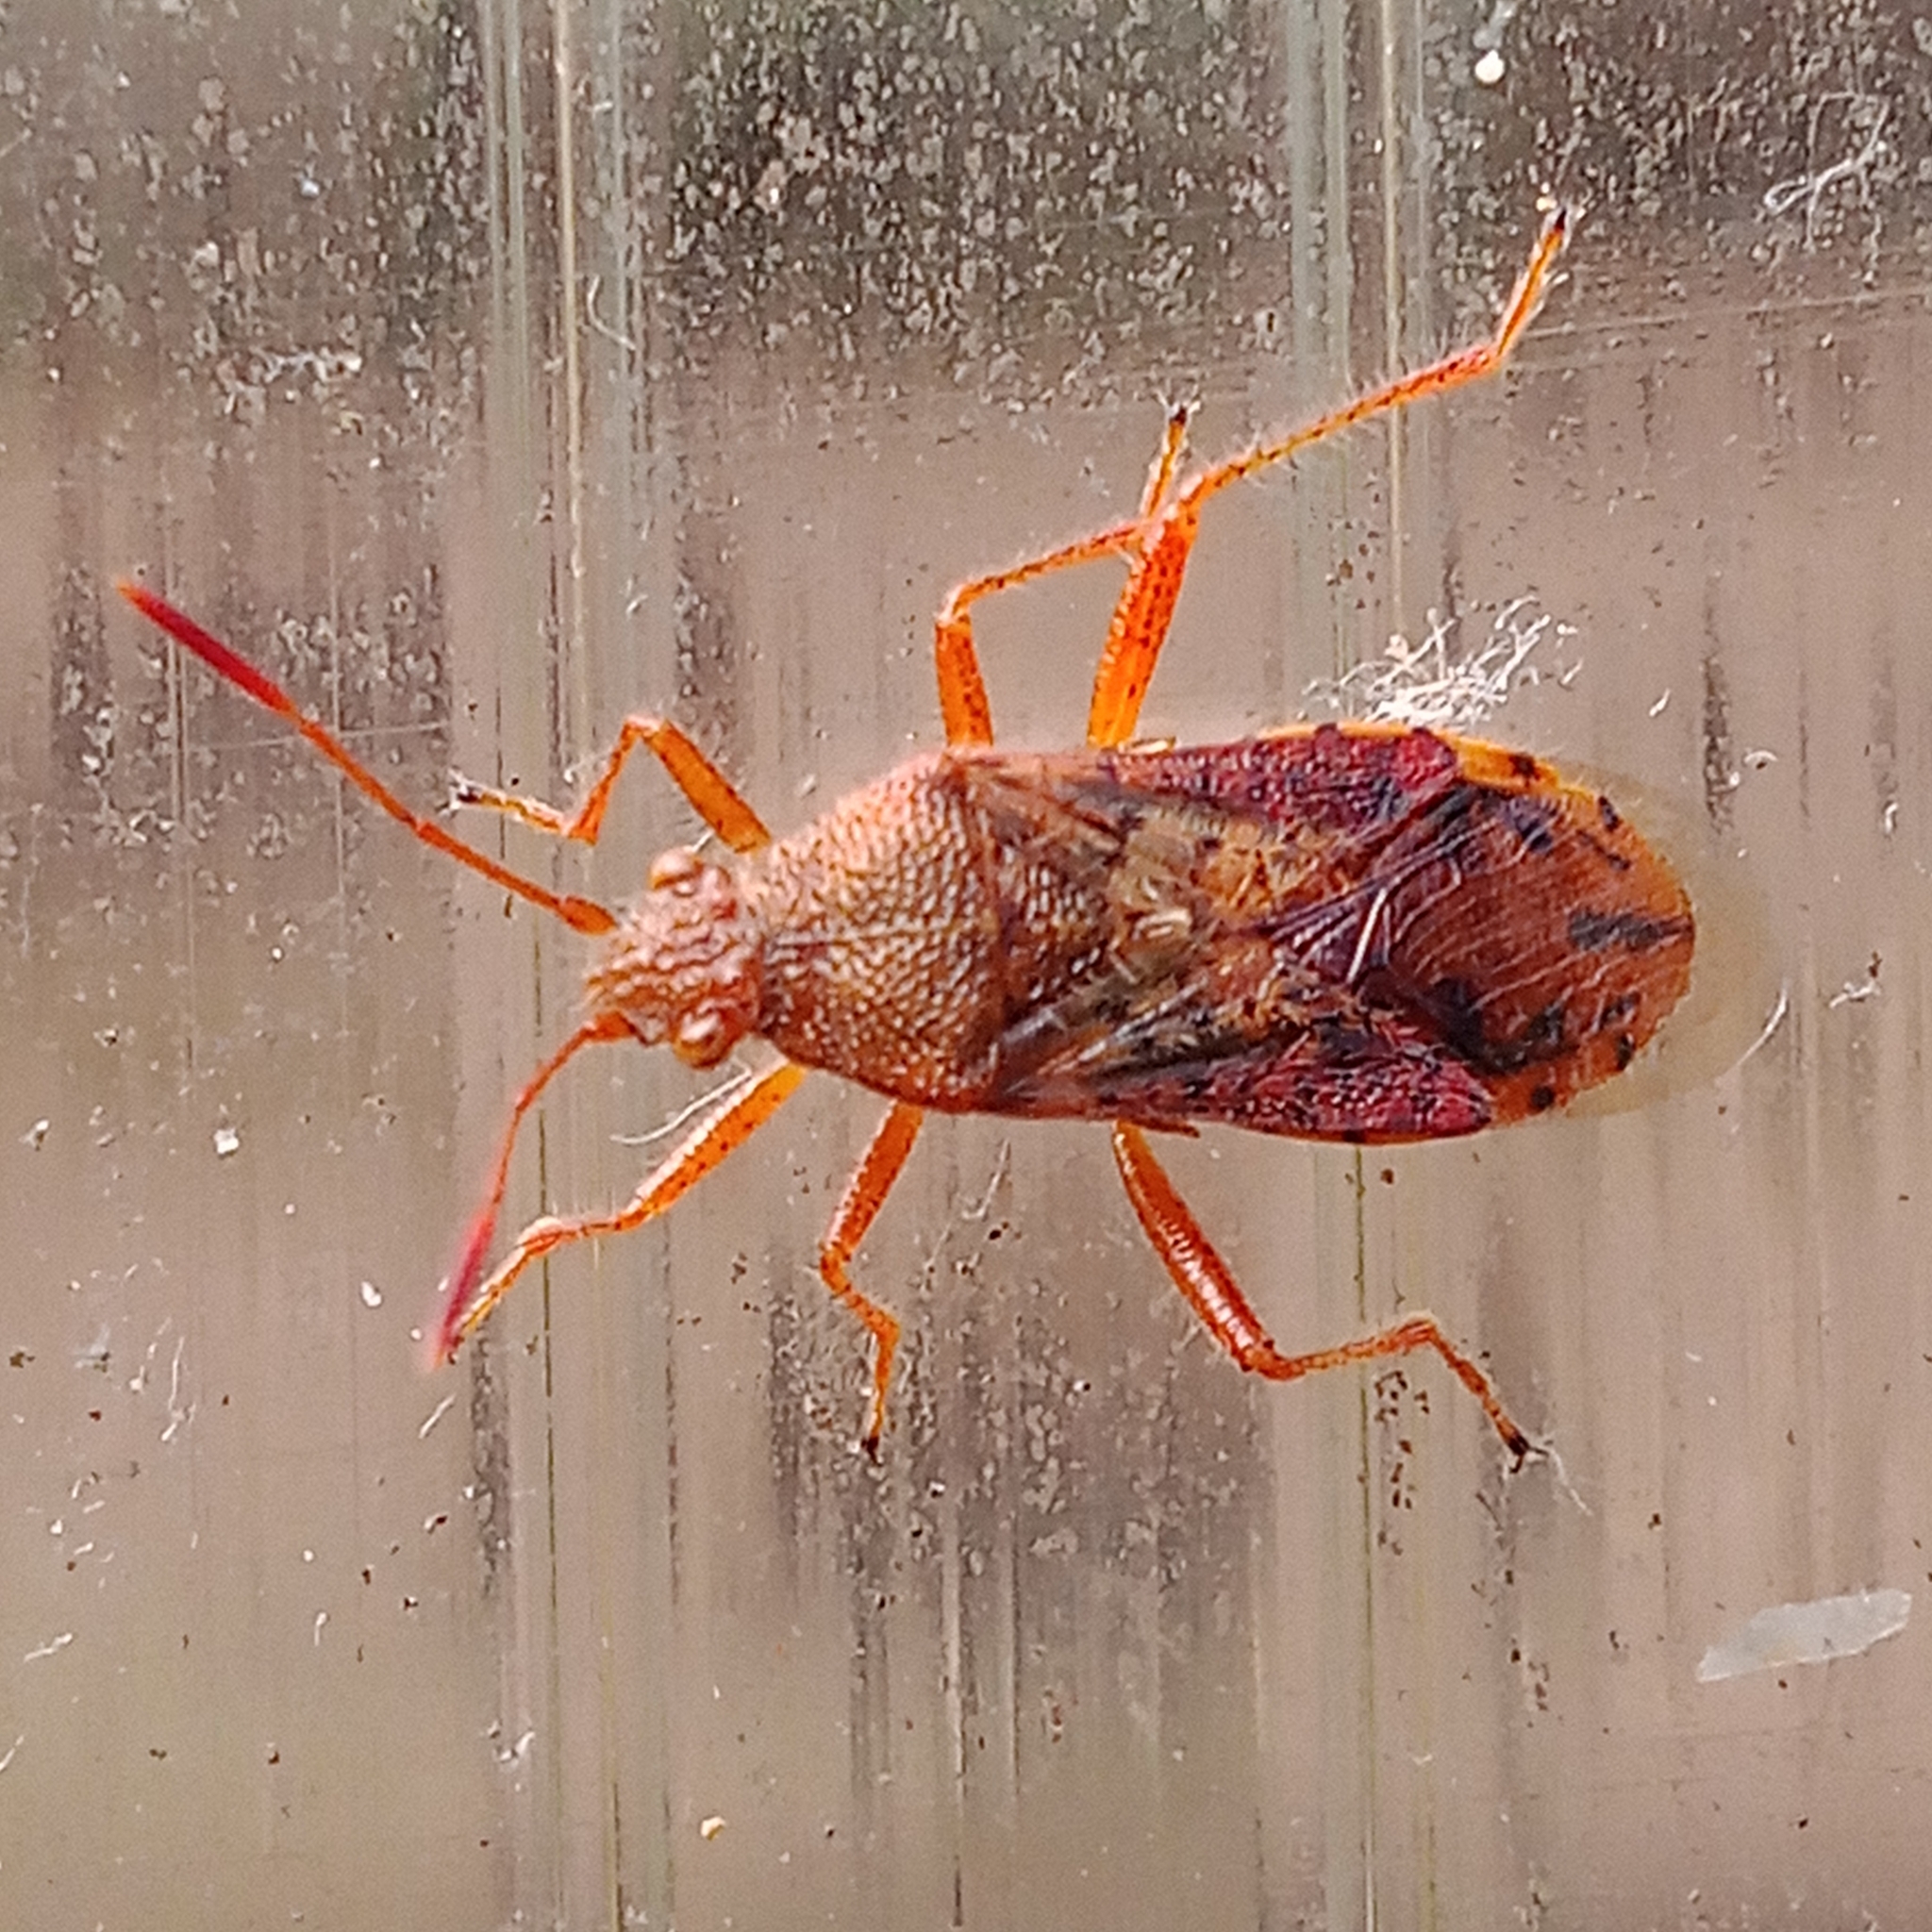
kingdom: Animalia
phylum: Arthropoda
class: Insecta
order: Hemiptera
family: Rhopalidae
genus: Rhopalus
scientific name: Rhopalus maculatus
